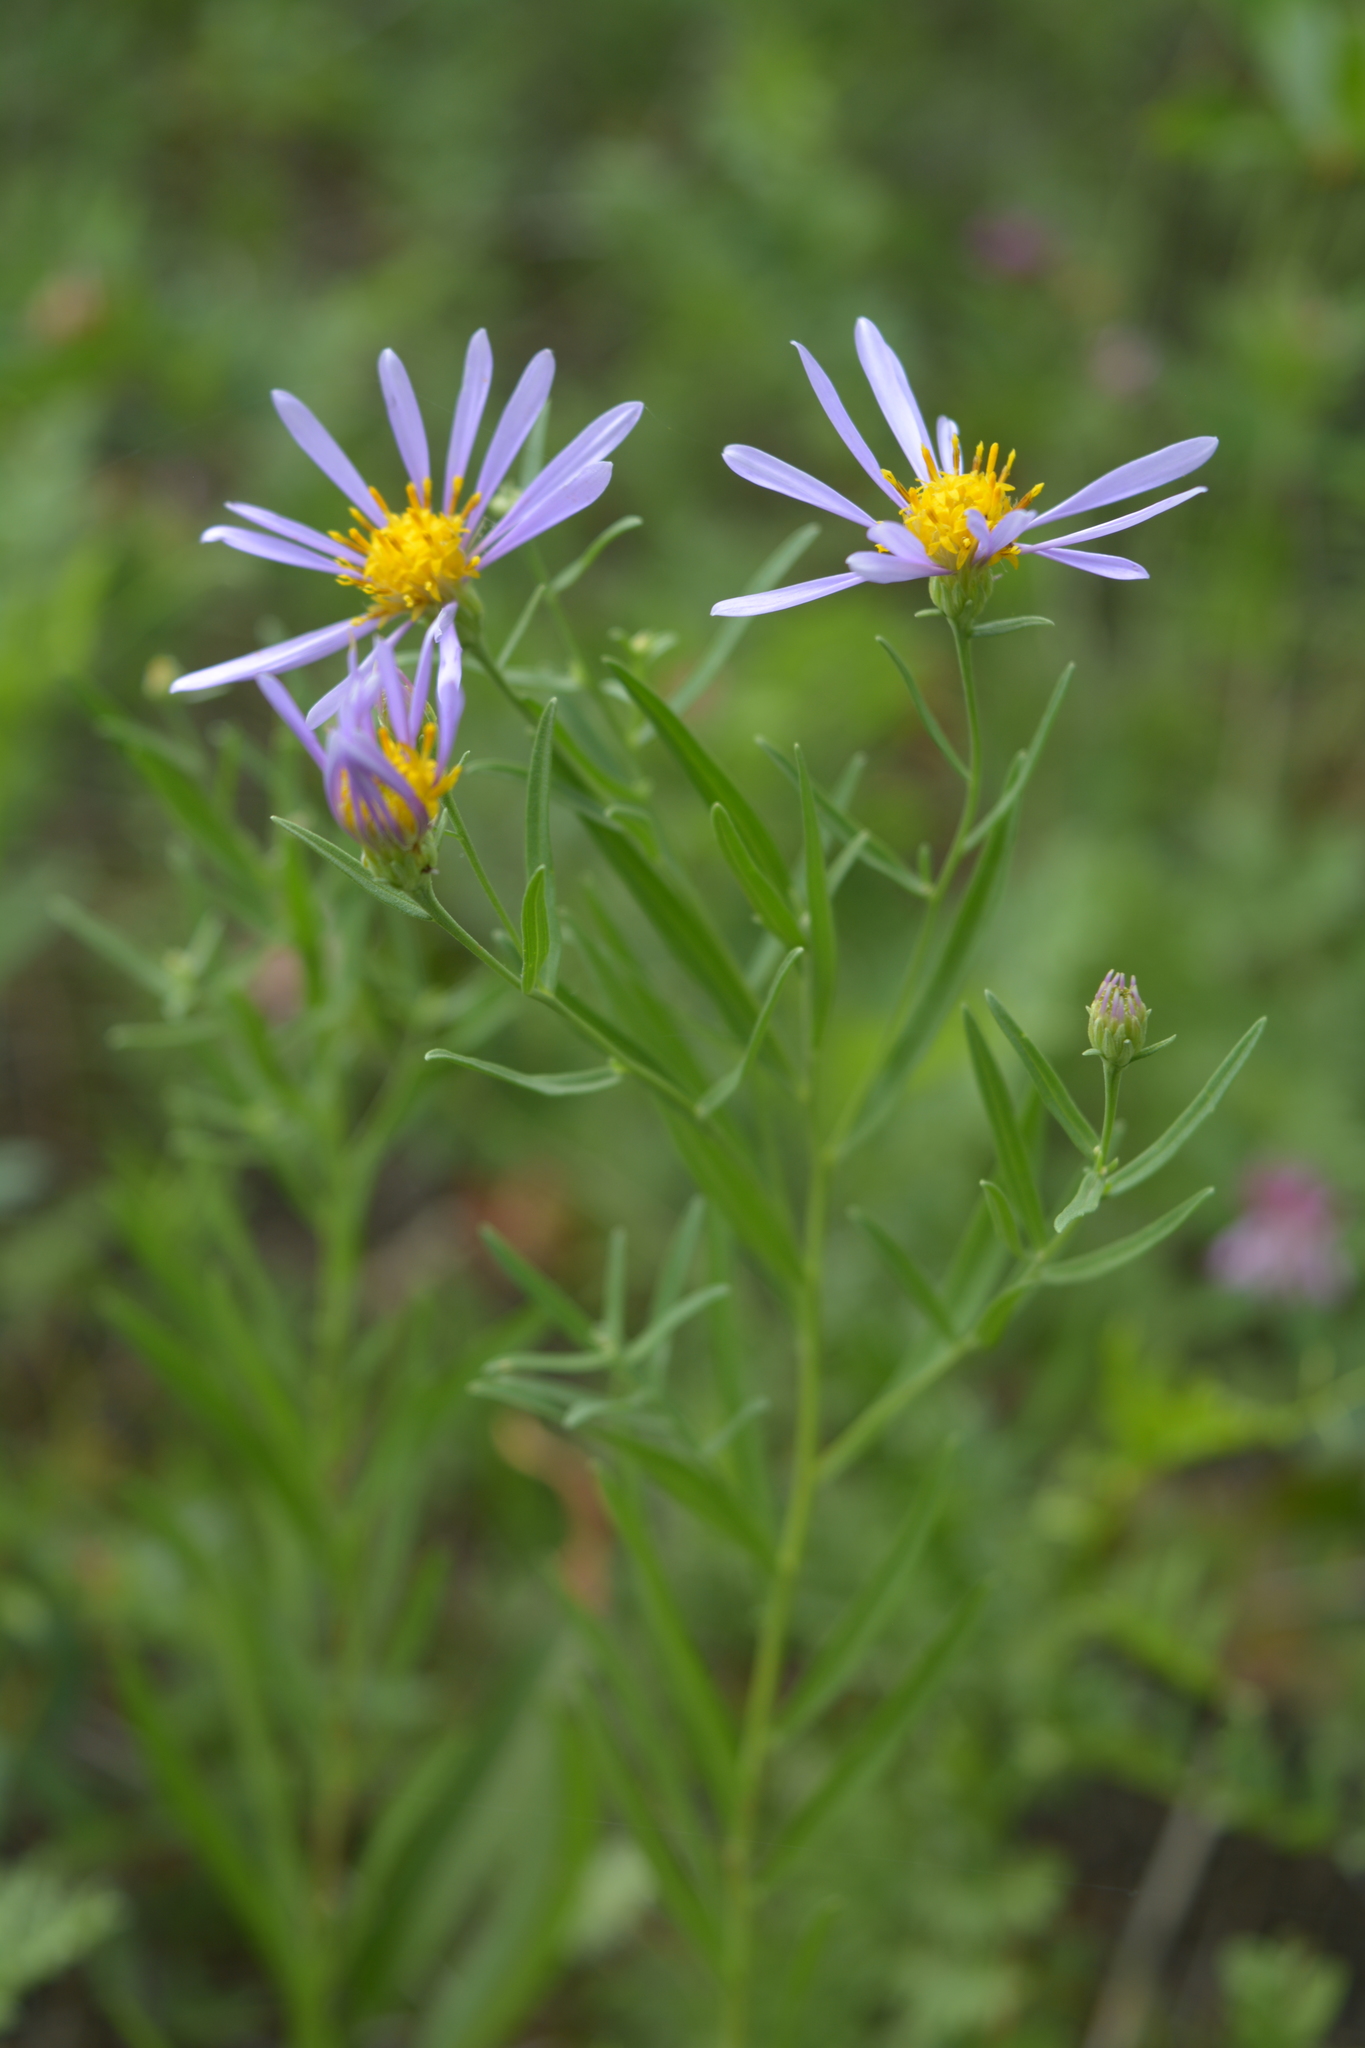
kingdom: Plantae
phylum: Tracheophyta
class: Magnoliopsida
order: Asterales
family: Asteraceae
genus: Galatella
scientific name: Galatella dahurica
